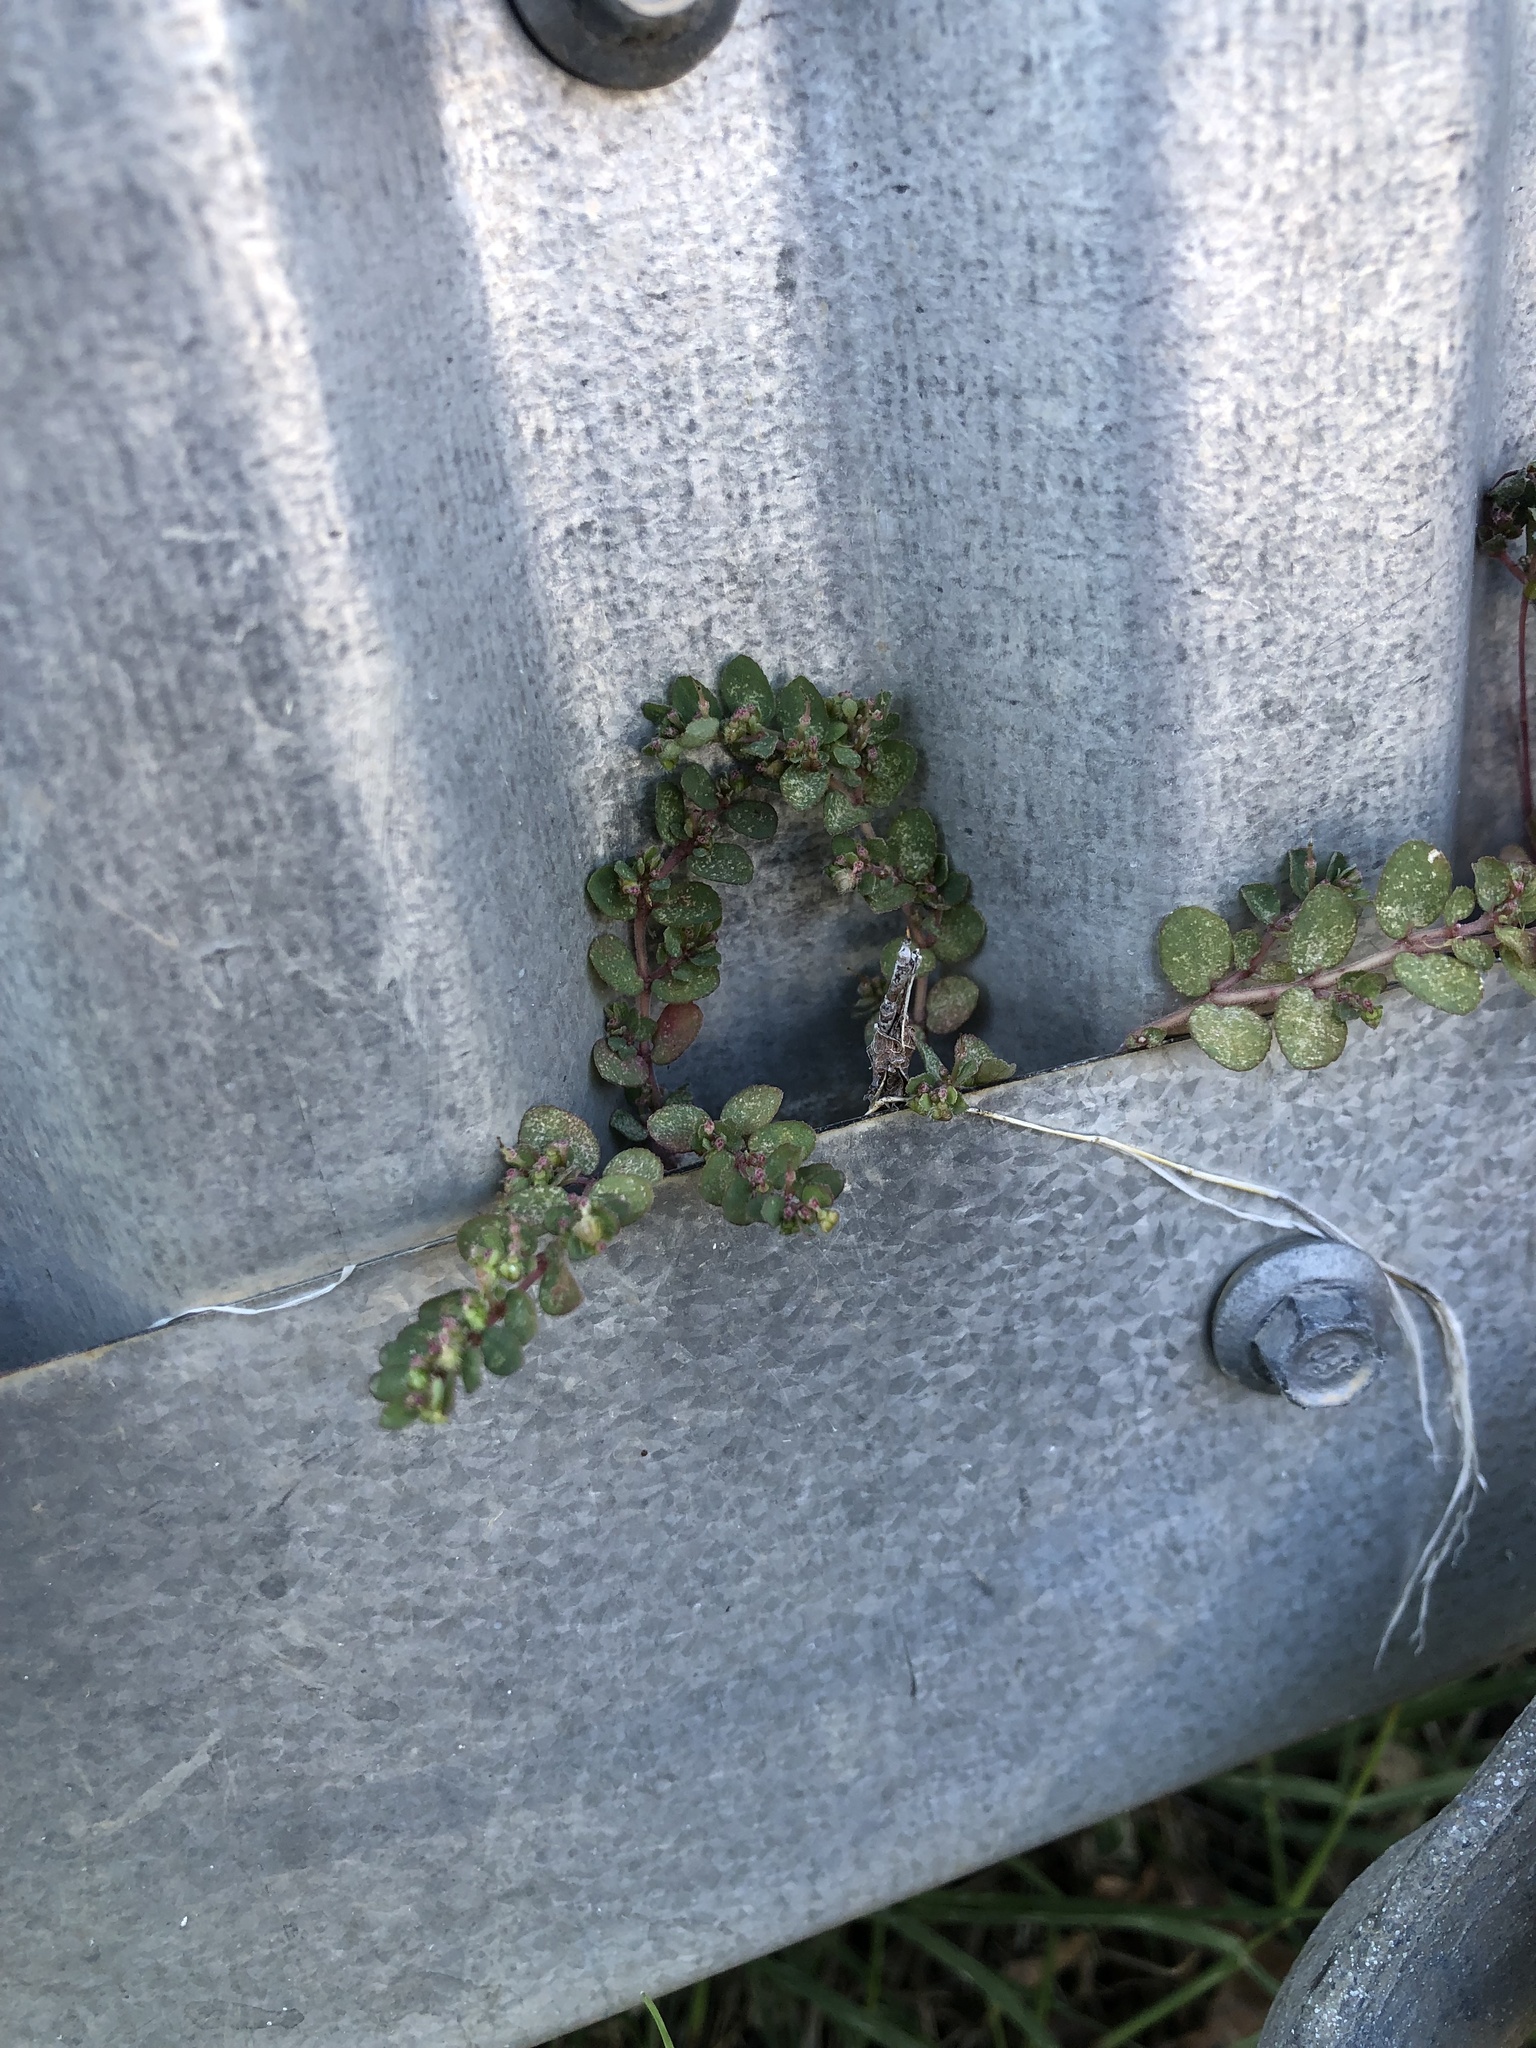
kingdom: Plantae
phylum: Tracheophyta
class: Magnoliopsida
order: Malpighiales
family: Euphorbiaceae
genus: Euphorbia
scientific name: Euphorbia prostrata
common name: Prostrate sandmat
